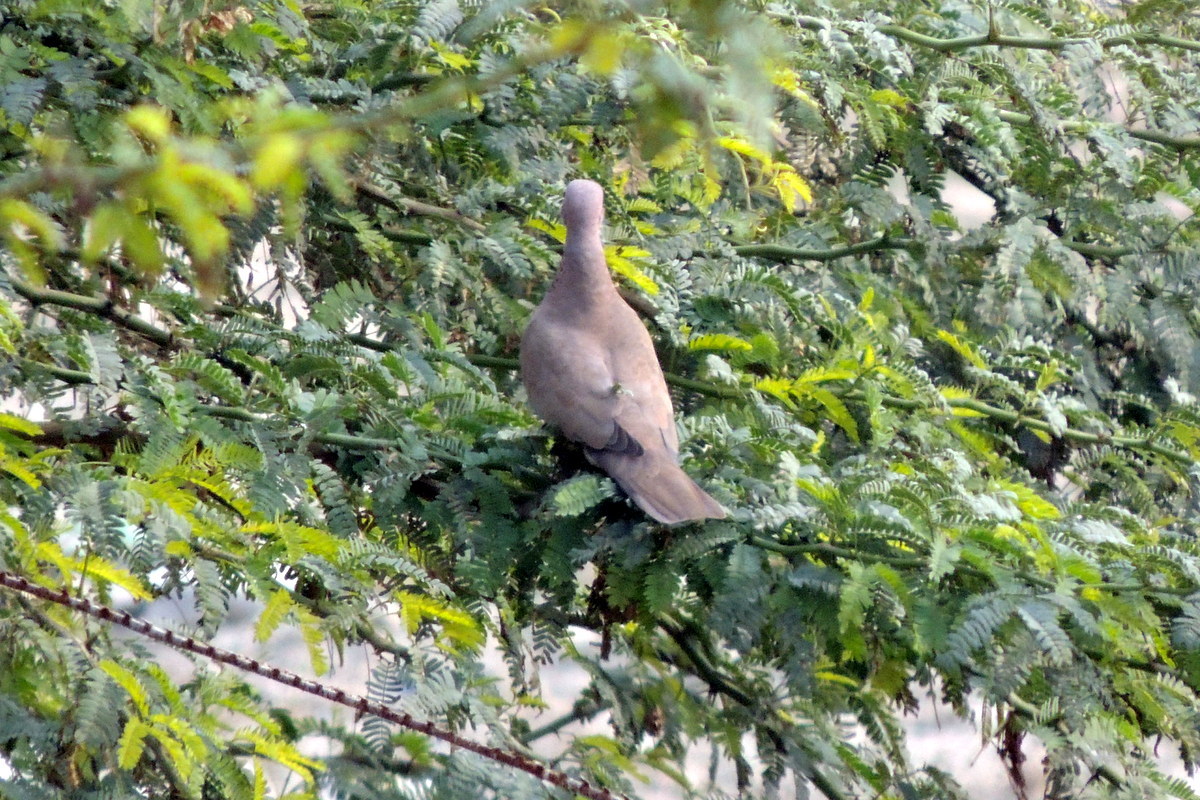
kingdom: Animalia
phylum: Chordata
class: Aves
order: Columbiformes
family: Columbidae
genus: Spilopelia
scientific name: Spilopelia senegalensis
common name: Laughing dove
